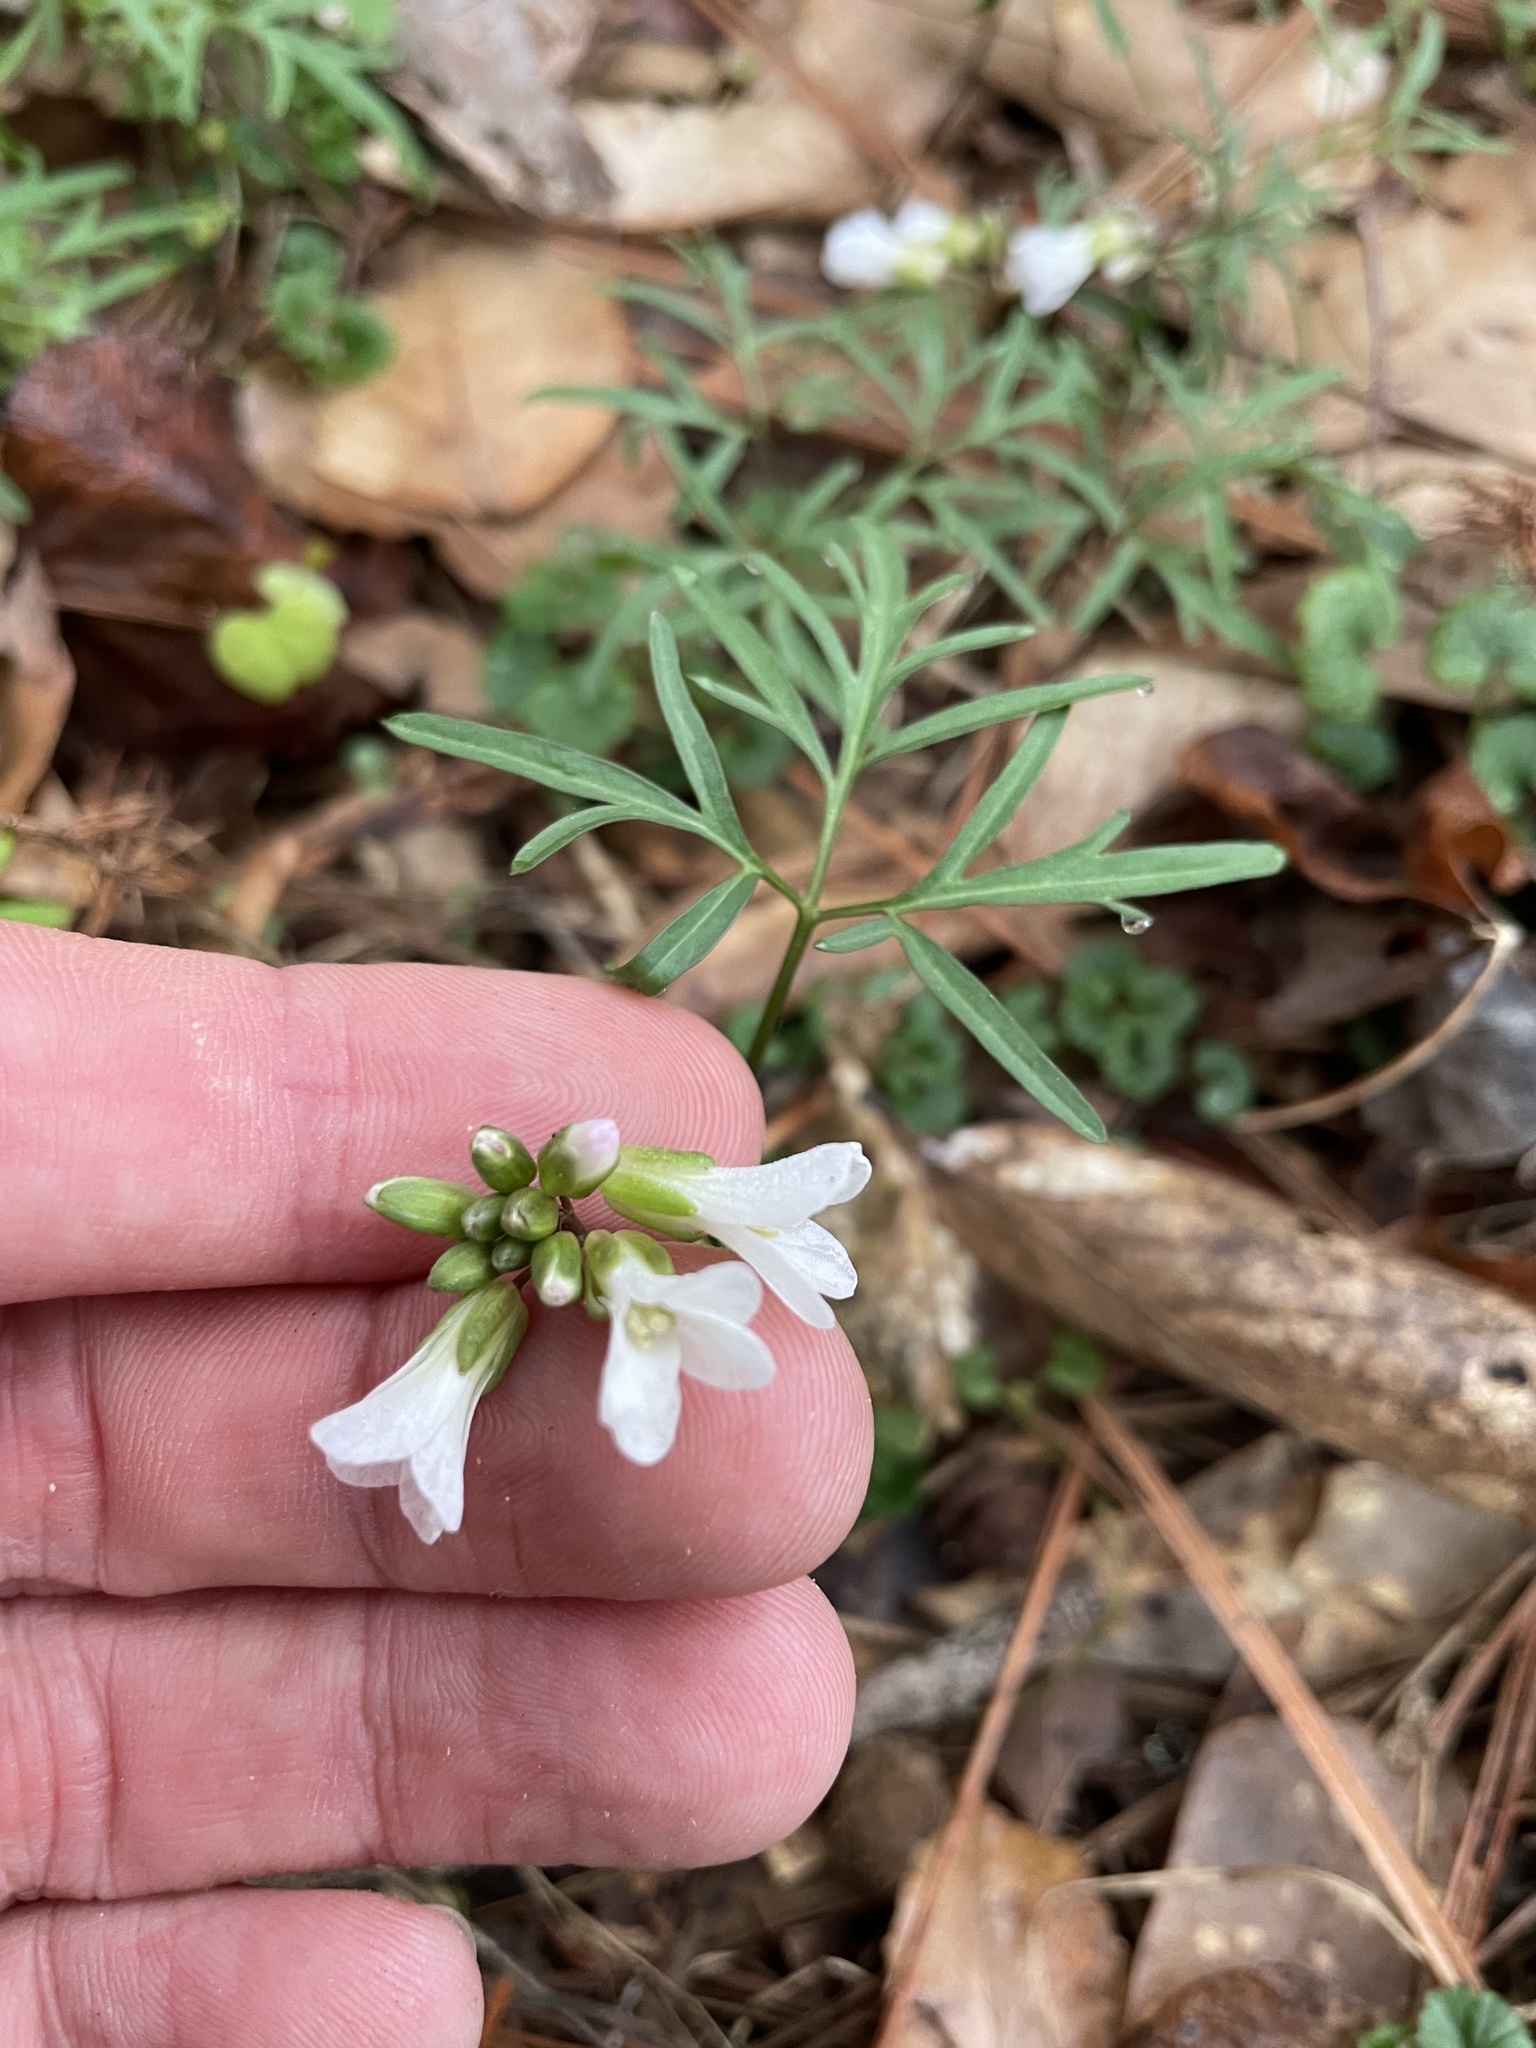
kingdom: Plantae
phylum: Tracheophyta
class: Magnoliopsida
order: Brassicales
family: Brassicaceae
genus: Cardamine
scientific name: Cardamine dissecta
